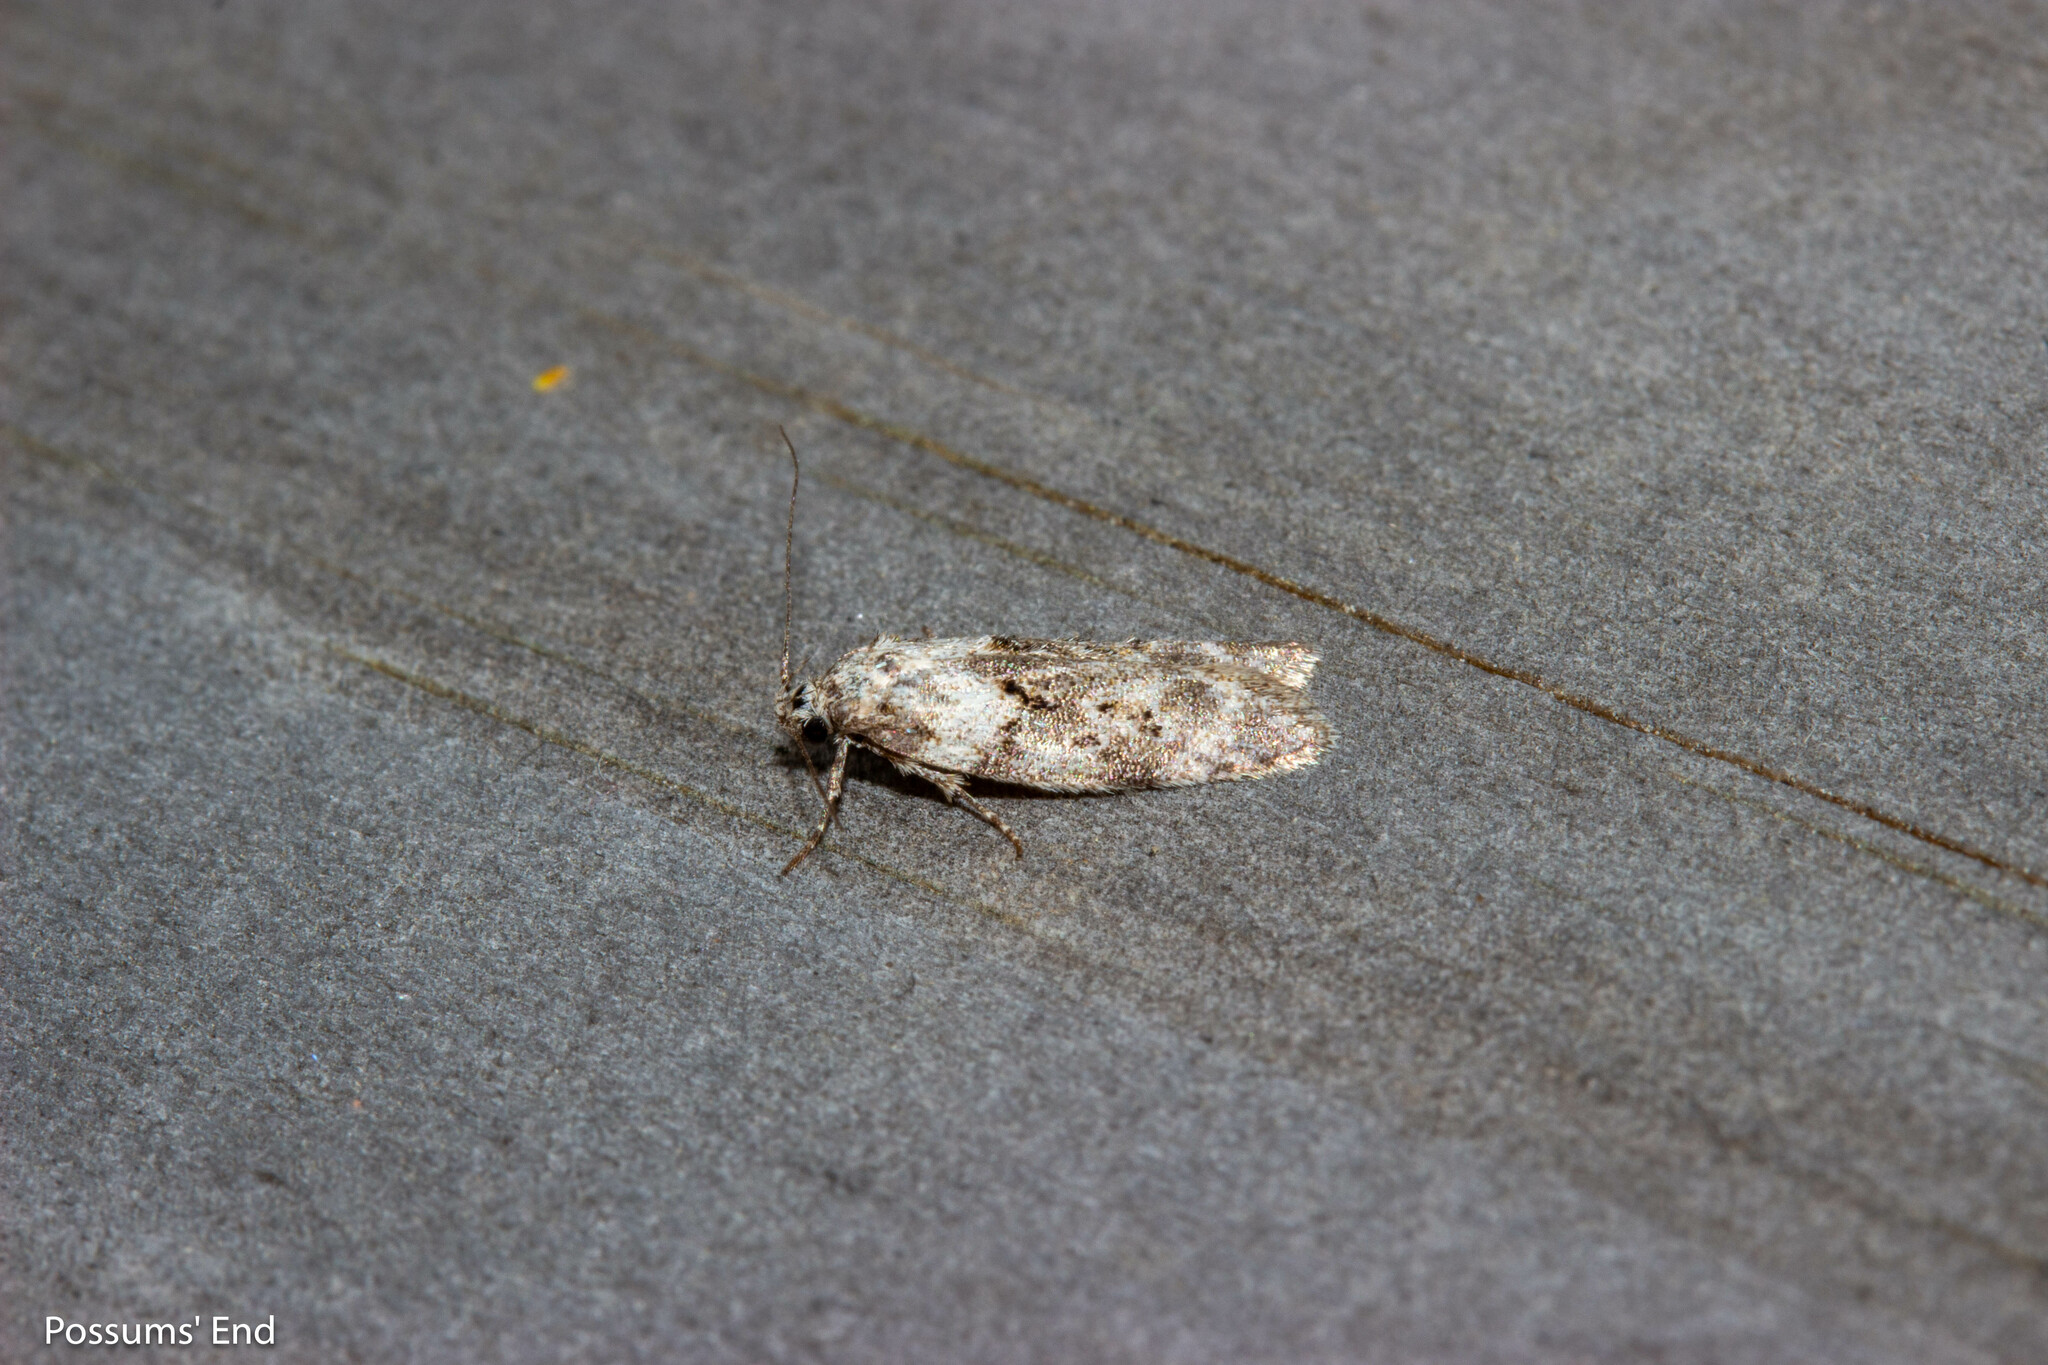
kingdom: Animalia
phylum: Arthropoda
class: Insecta
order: Lepidoptera
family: Oecophoridae
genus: Izatha
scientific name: Izatha convulsella
